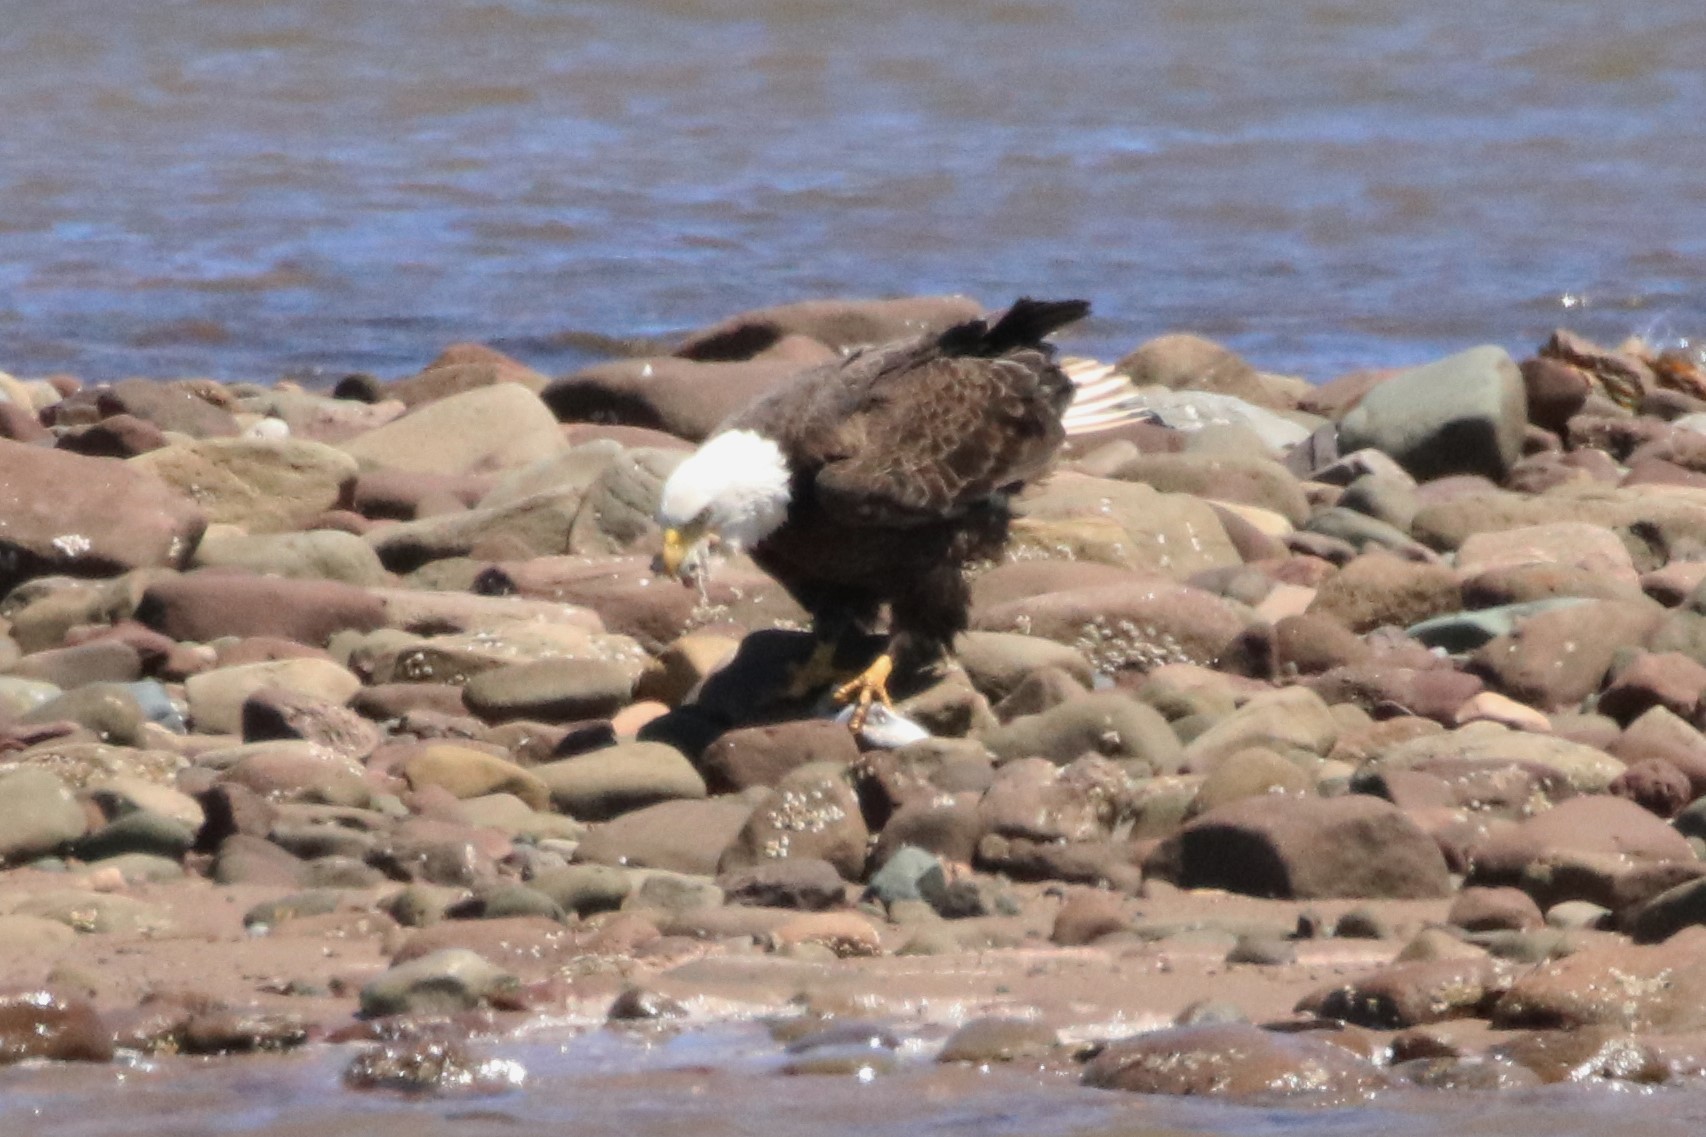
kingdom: Animalia
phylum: Chordata
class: Aves
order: Accipitriformes
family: Accipitridae
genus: Haliaeetus
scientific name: Haliaeetus leucocephalus
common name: Bald eagle
